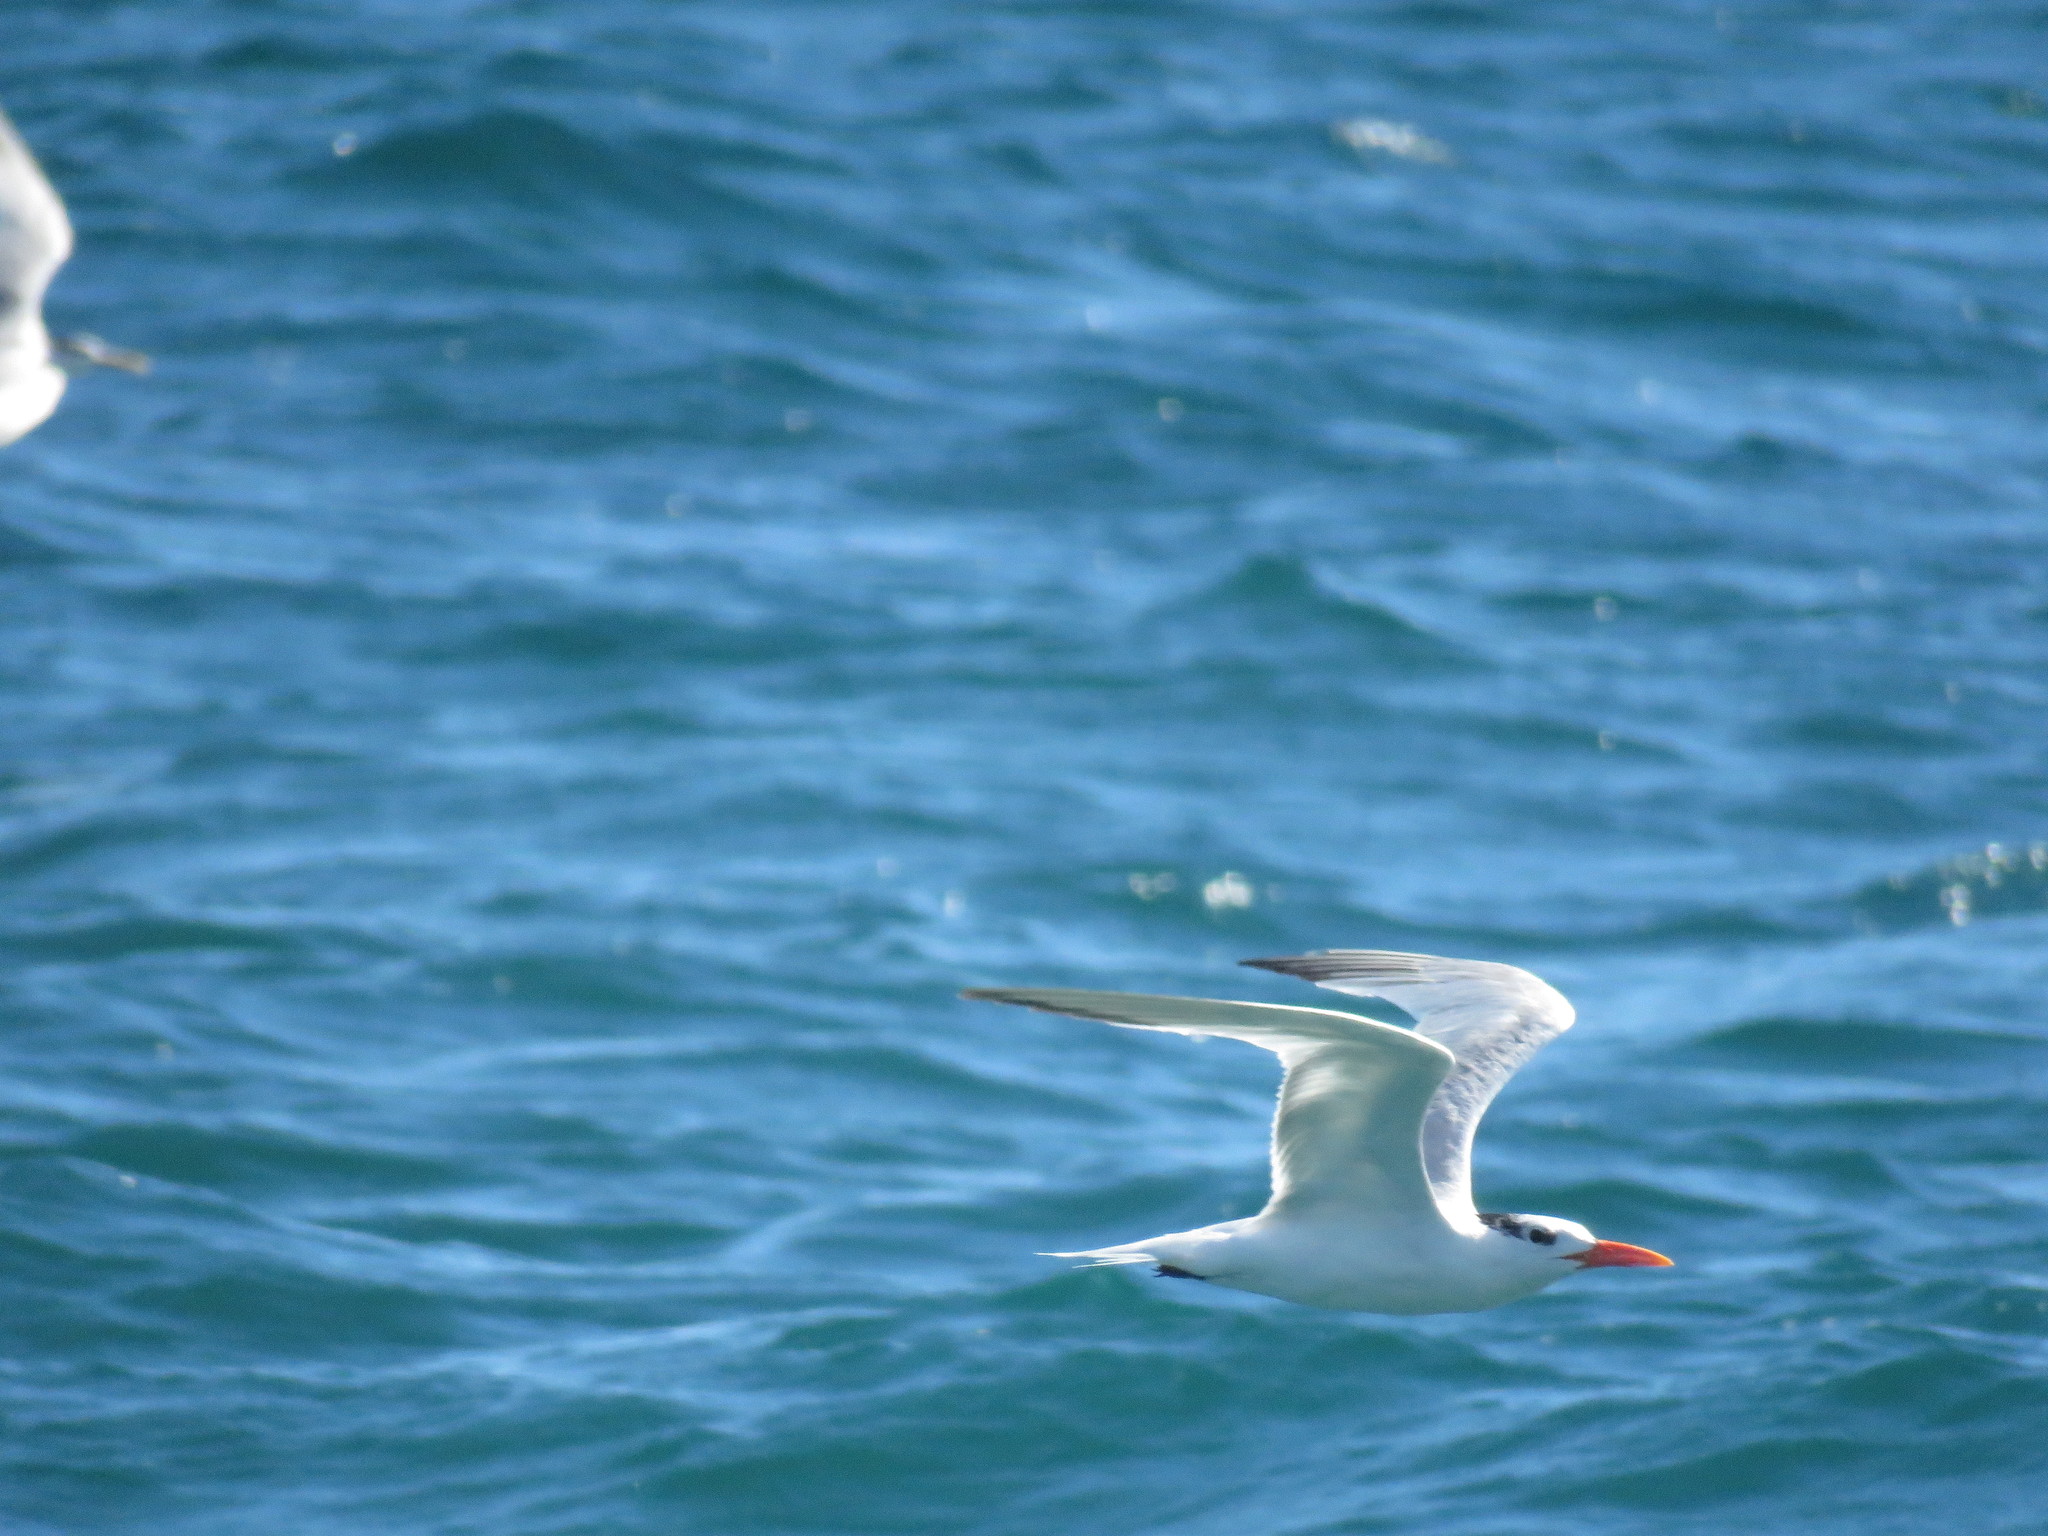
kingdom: Animalia
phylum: Chordata
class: Aves
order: Charadriiformes
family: Laridae
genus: Thalasseus
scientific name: Thalasseus maximus
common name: Royal tern
